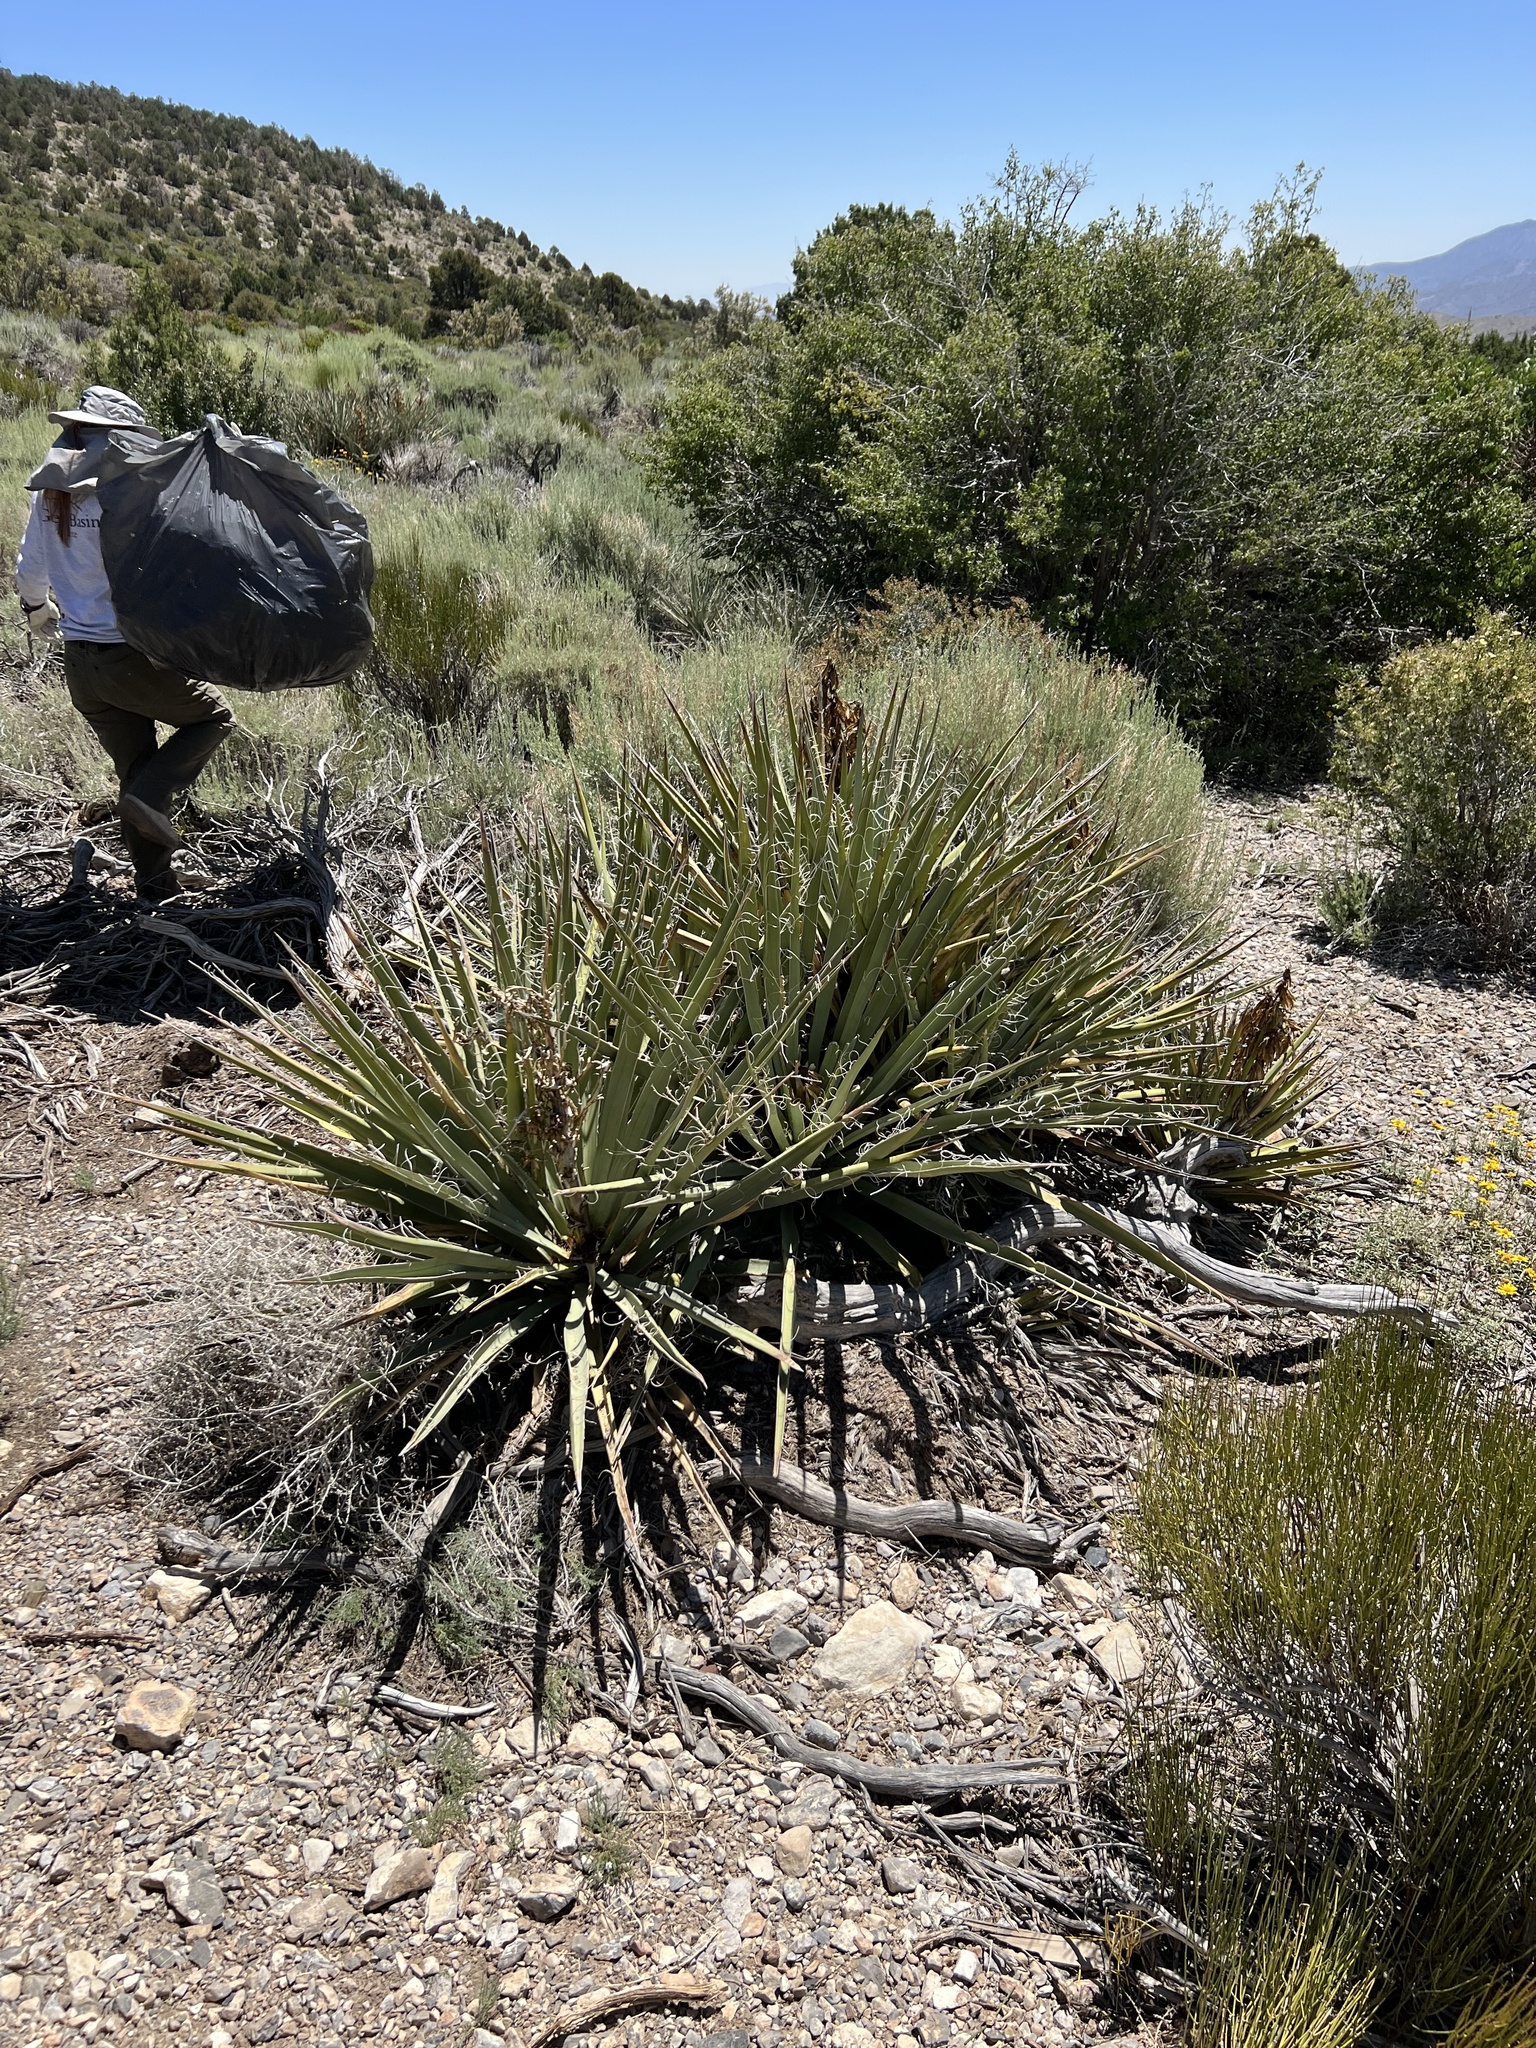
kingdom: Plantae
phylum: Tracheophyta
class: Liliopsida
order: Asparagales
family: Asparagaceae
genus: Yucca
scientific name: Yucca baccata
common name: Banana yucca
